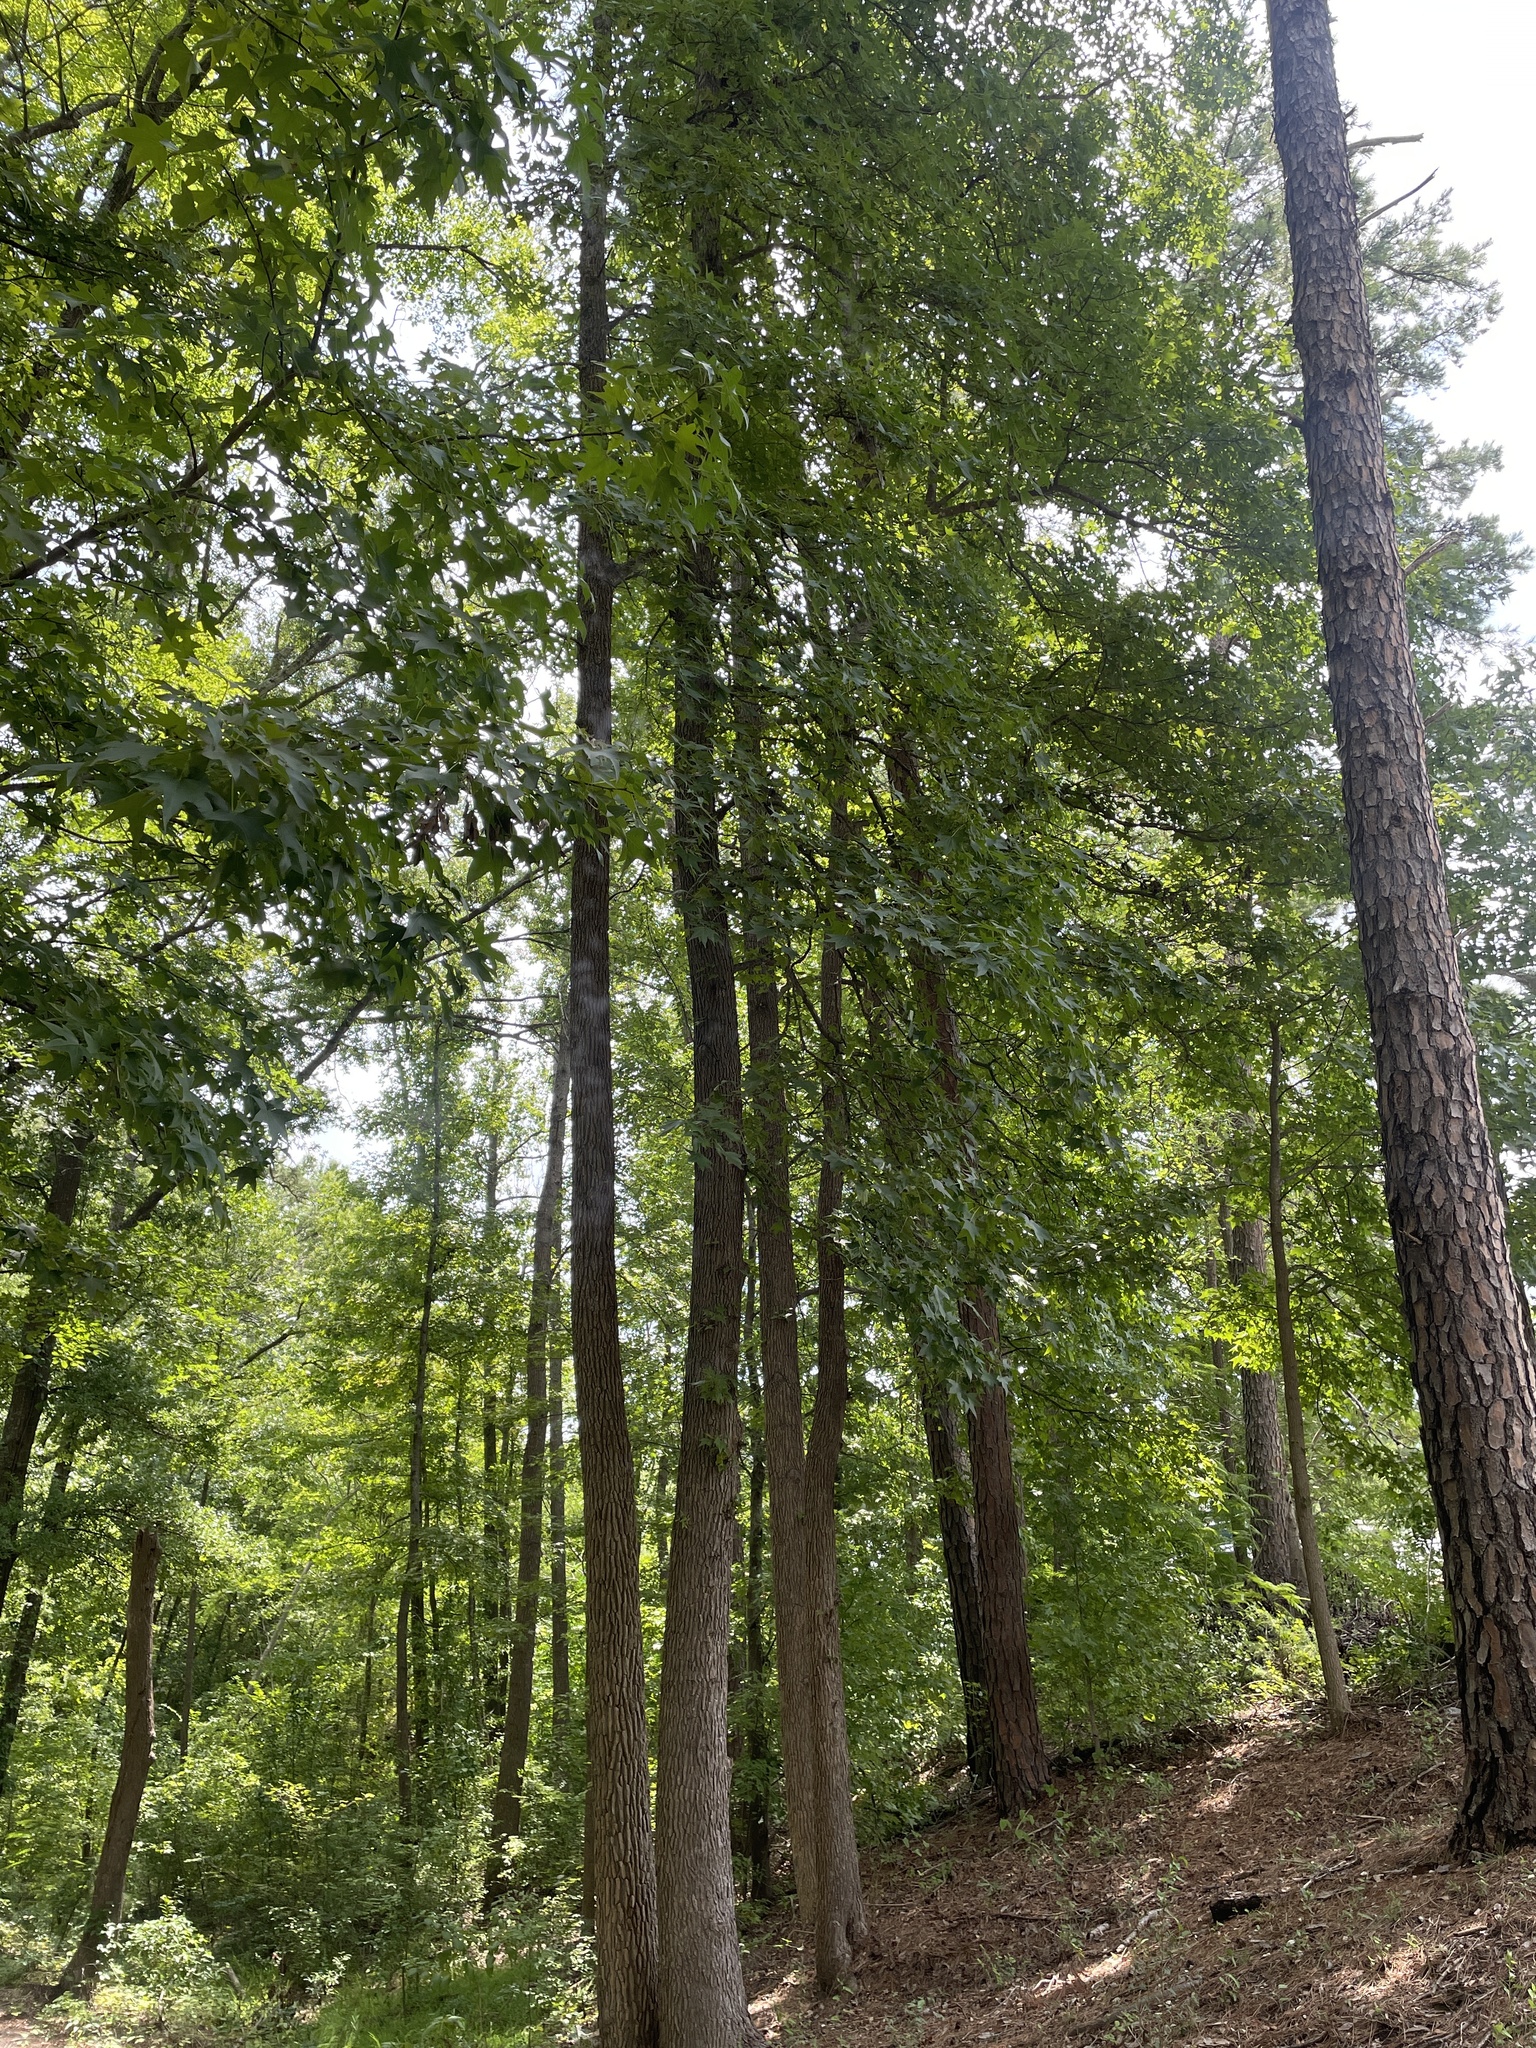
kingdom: Plantae
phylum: Tracheophyta
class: Magnoliopsida
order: Saxifragales
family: Altingiaceae
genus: Liquidambar
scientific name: Liquidambar styraciflua
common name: Sweet gum
